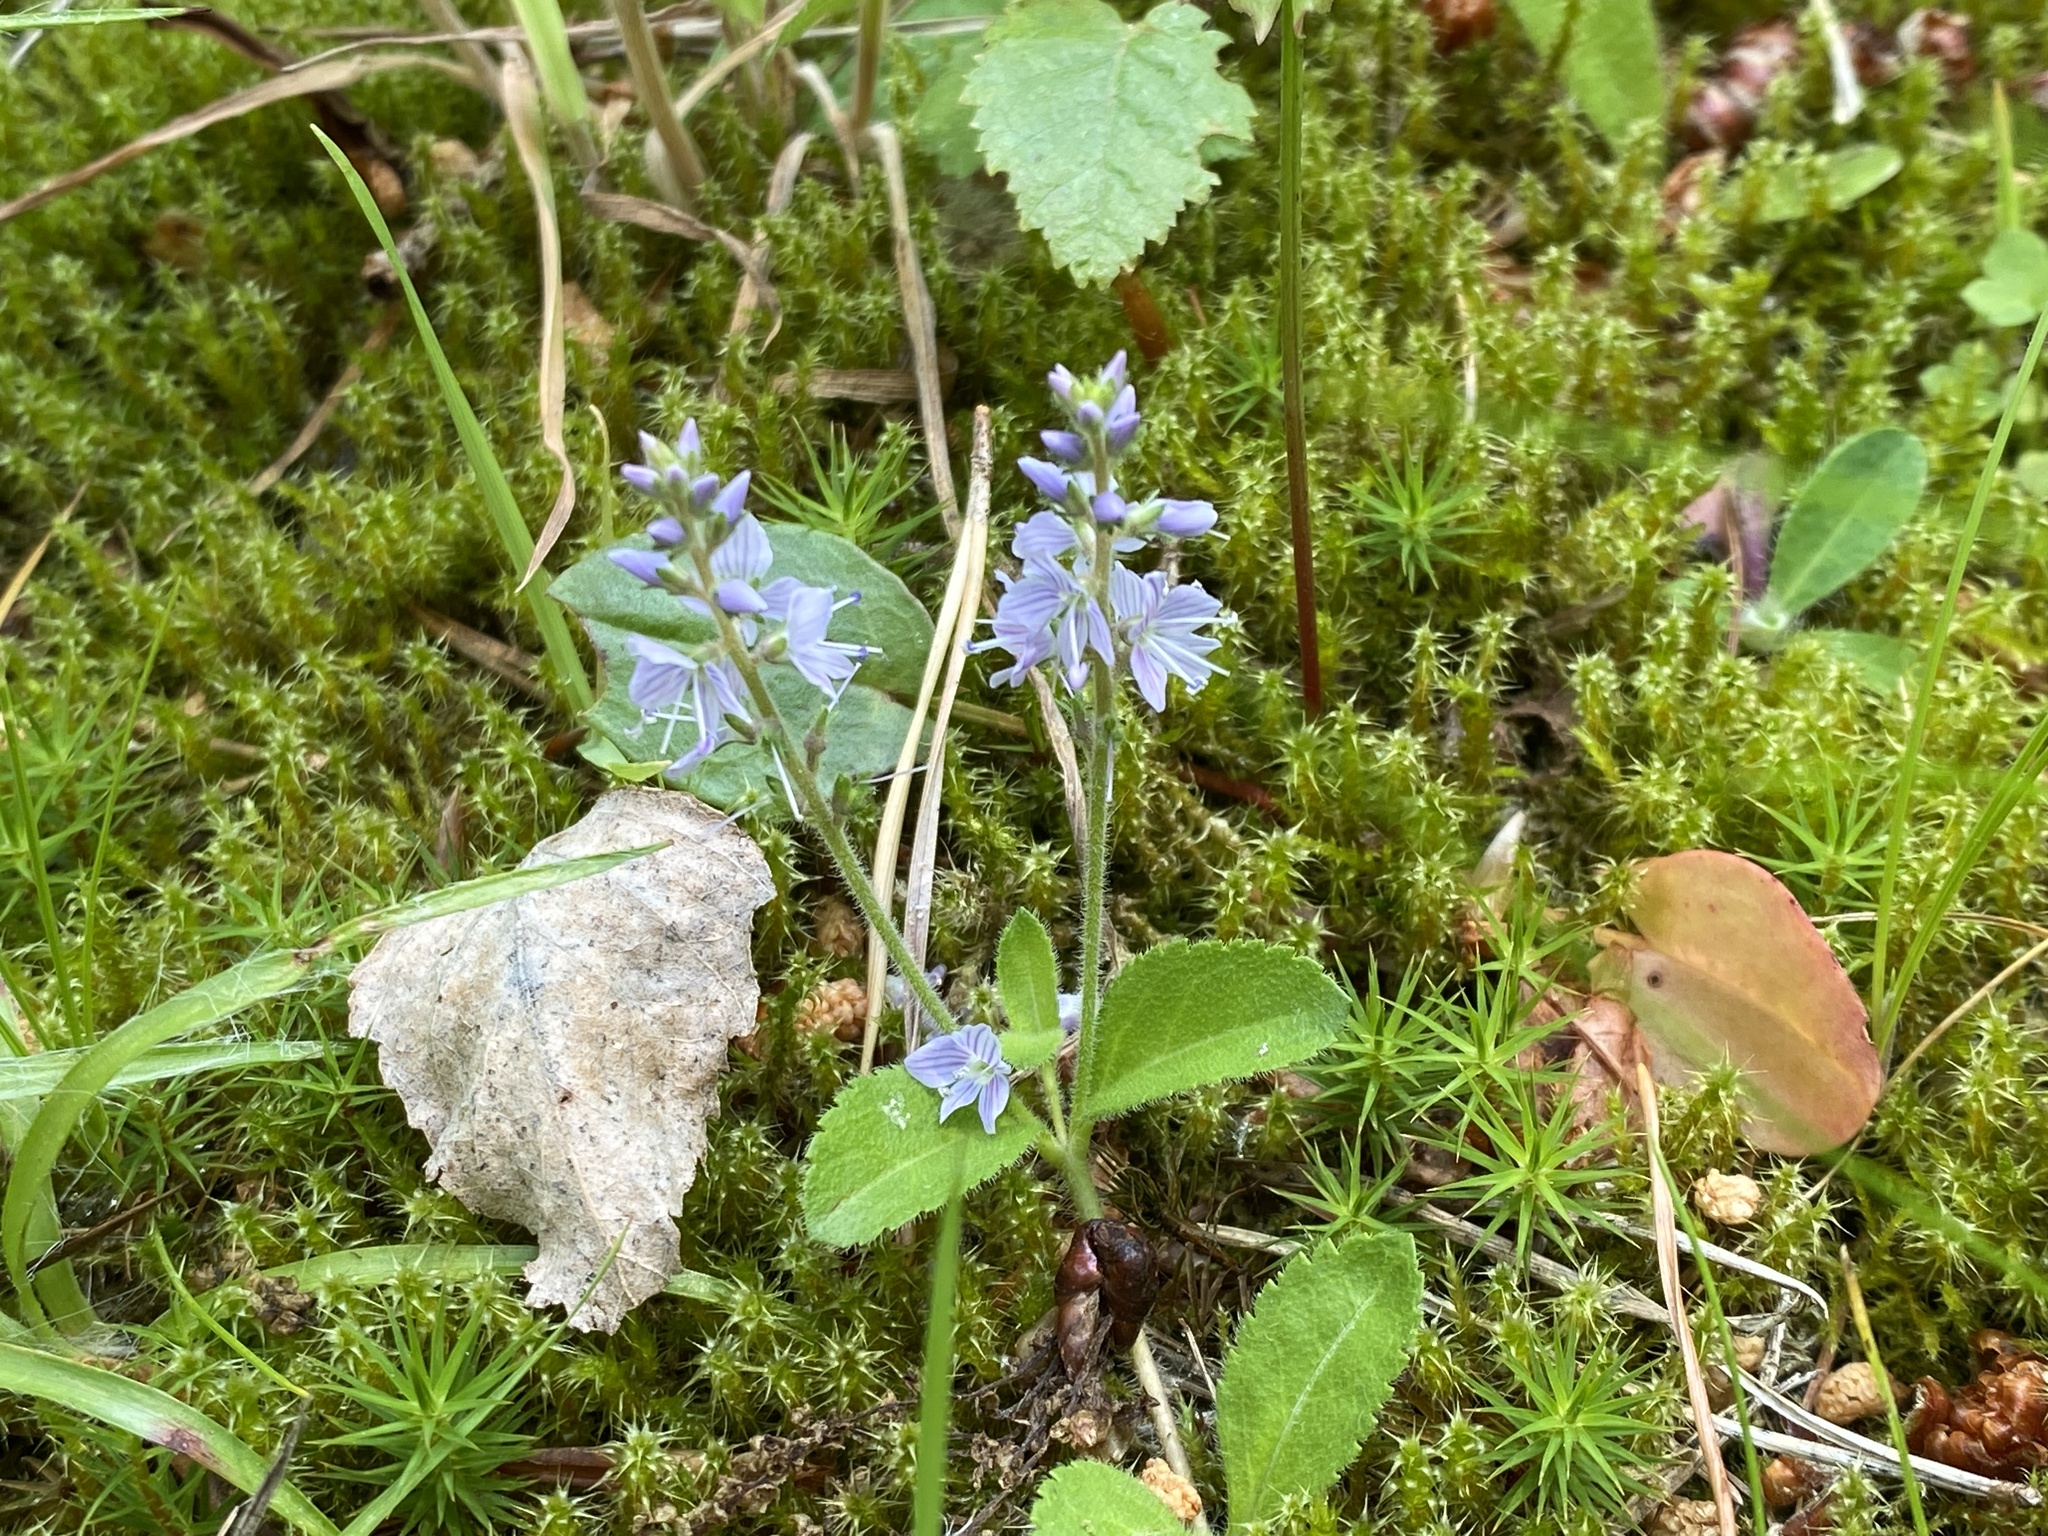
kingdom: Plantae
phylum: Tracheophyta
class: Magnoliopsida
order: Lamiales
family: Plantaginaceae
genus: Veronica
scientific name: Veronica officinalis
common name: Common speedwell
